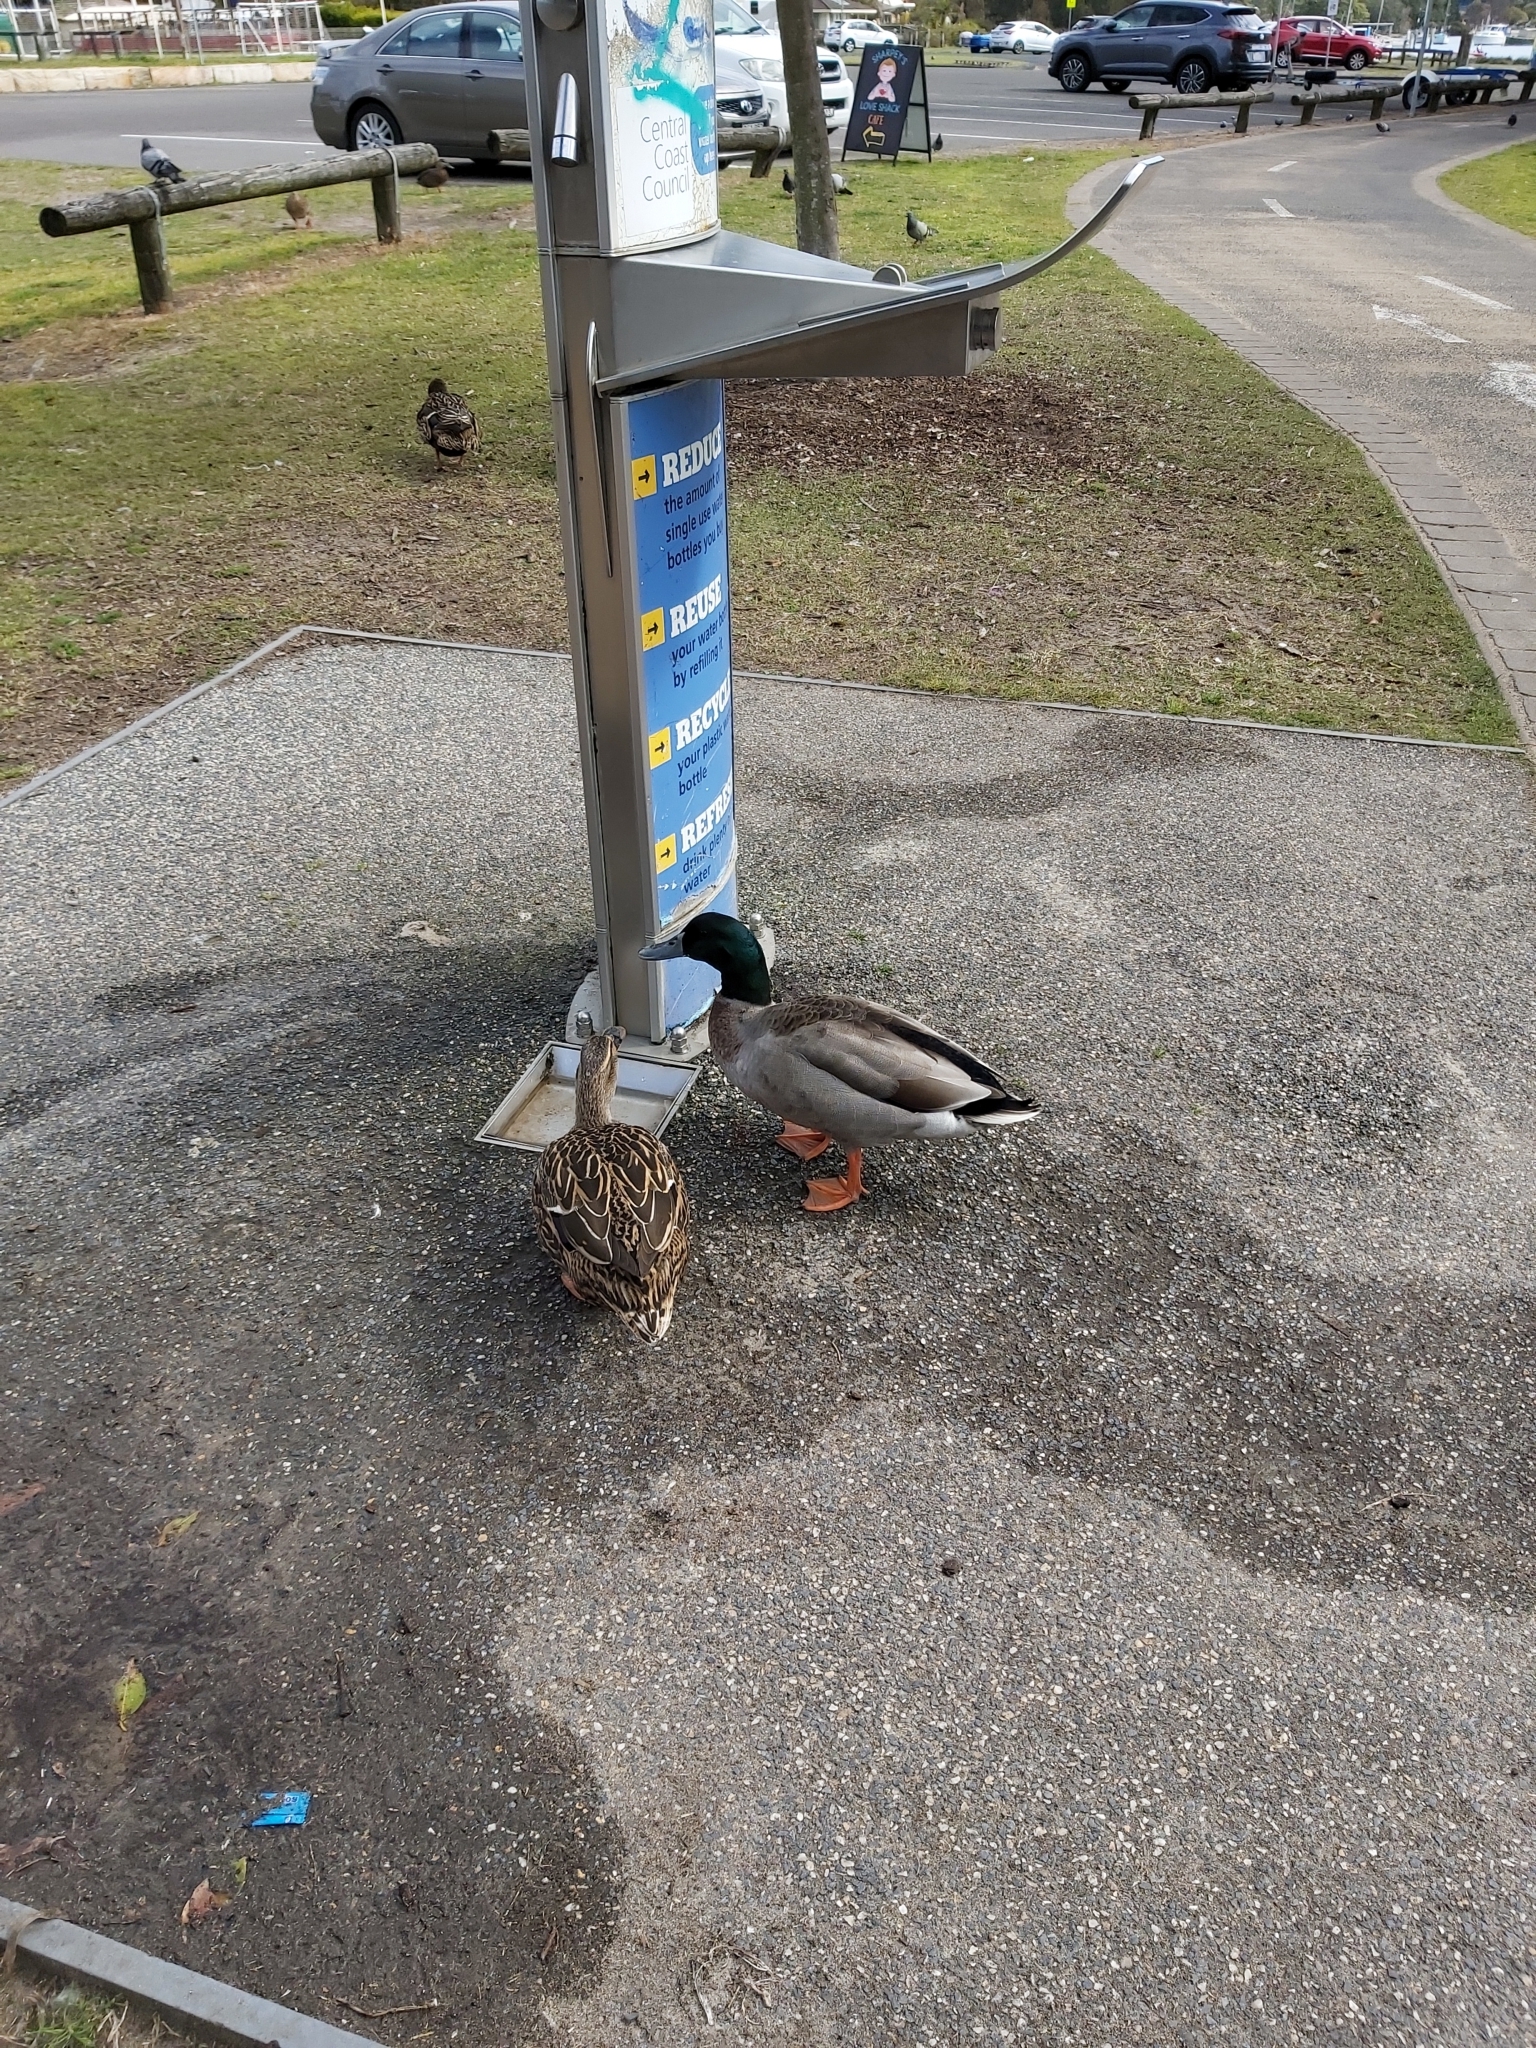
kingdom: Animalia
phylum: Chordata
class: Aves
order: Anseriformes
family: Anatidae
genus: Anas
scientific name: Anas platyrhynchos
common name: Mallard
